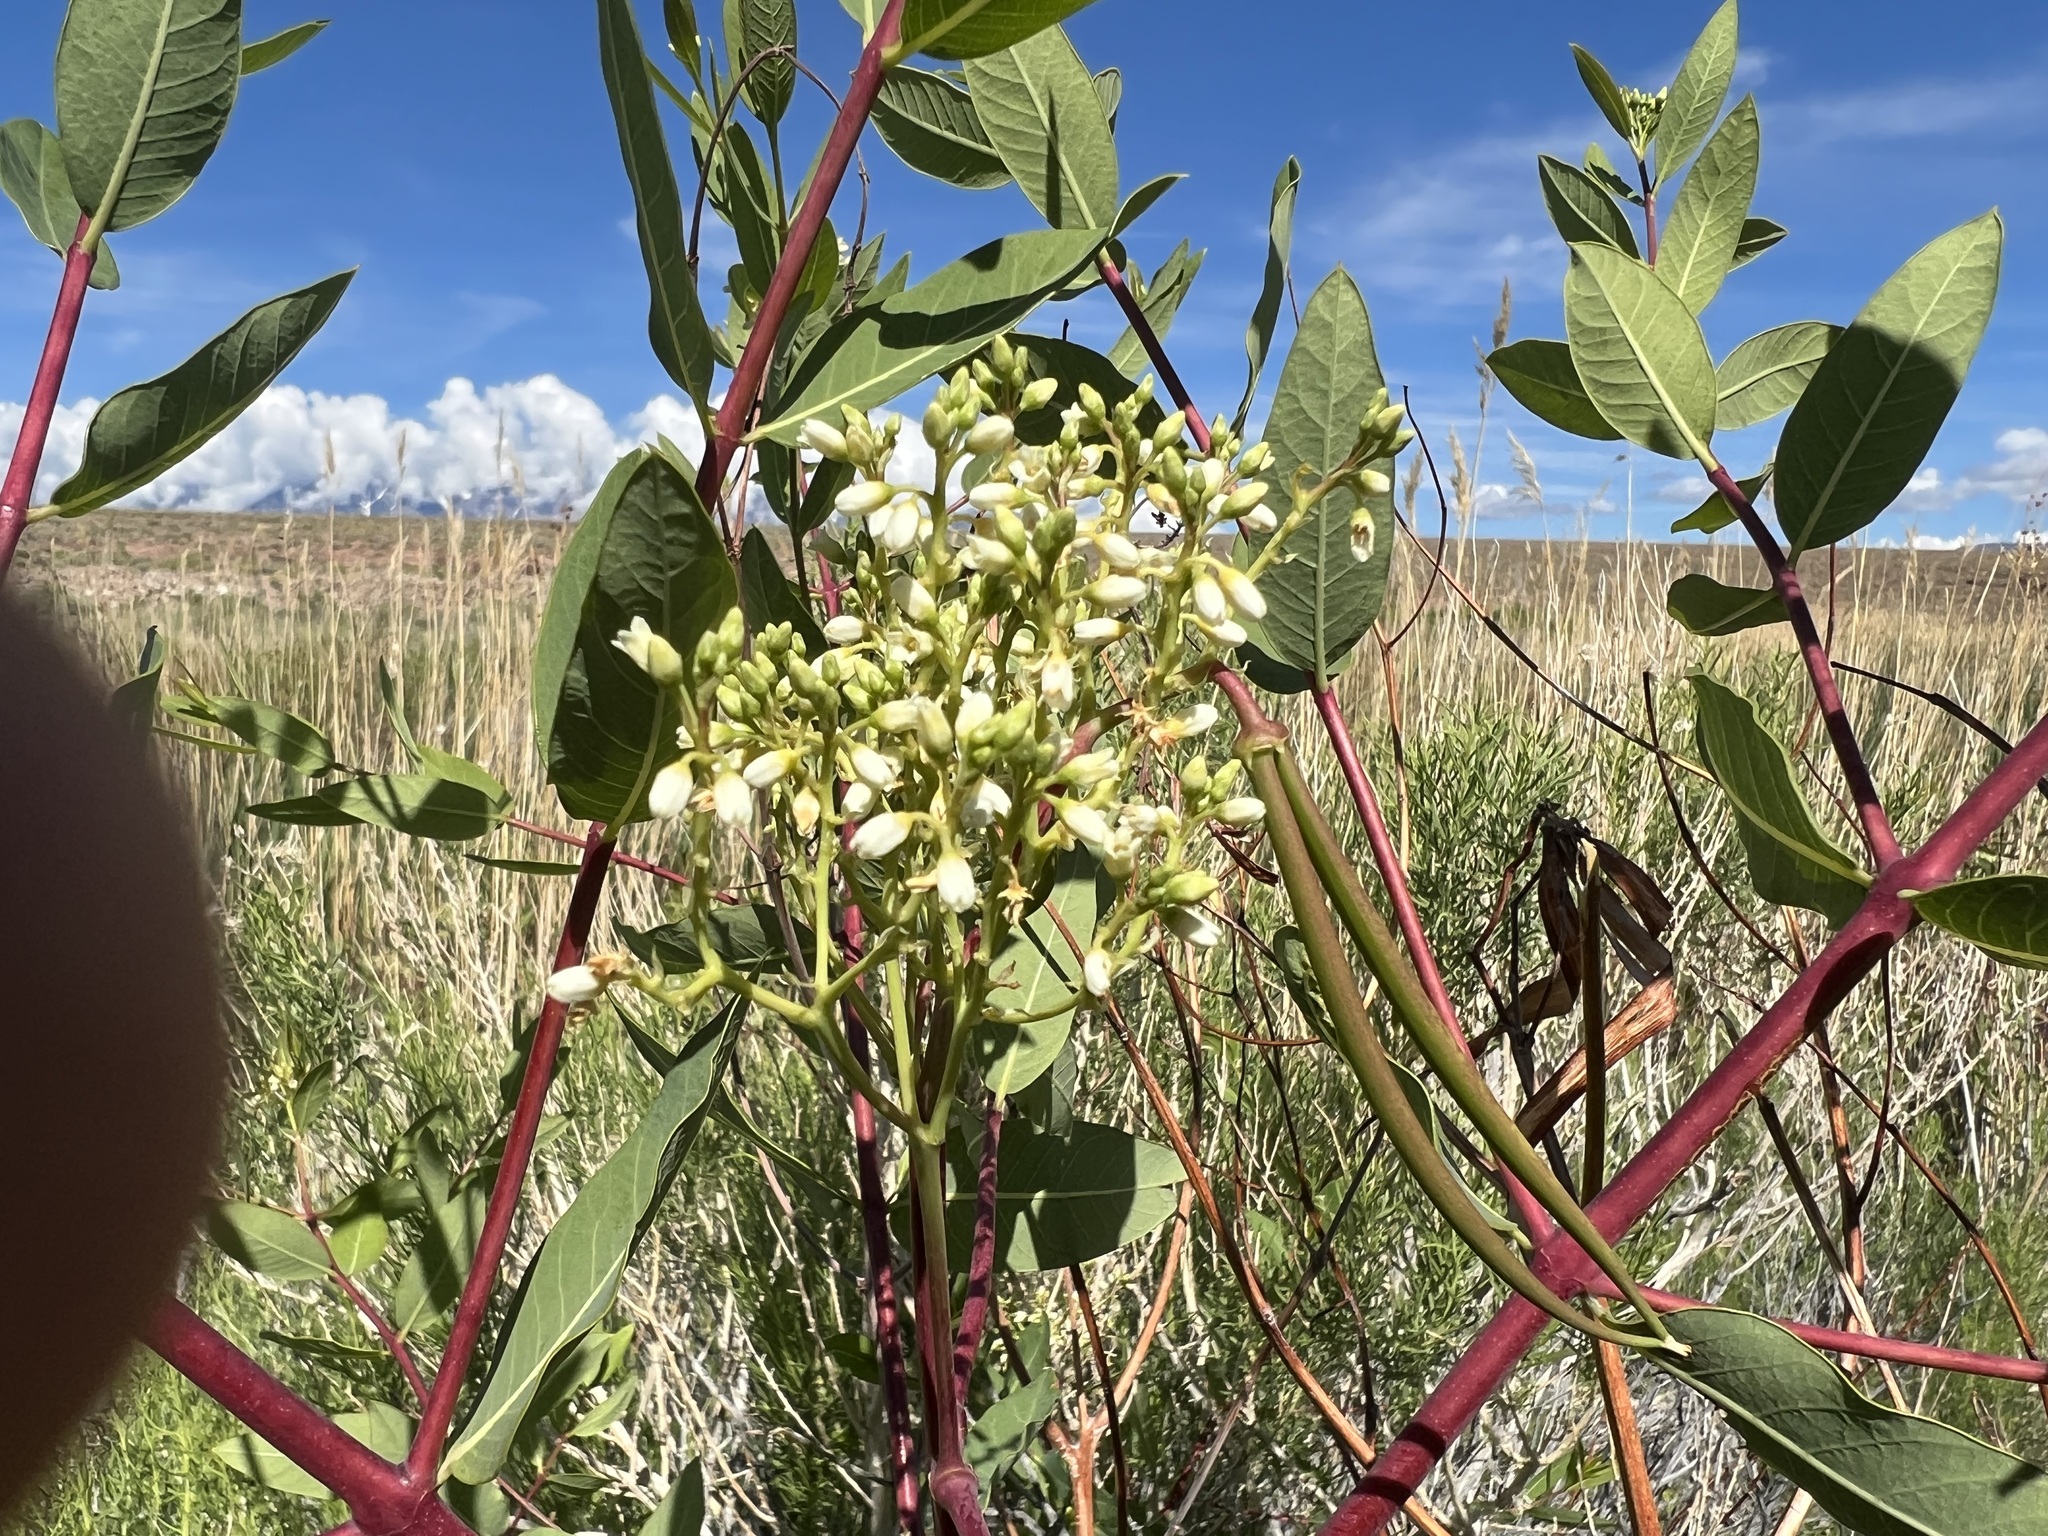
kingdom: Plantae
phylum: Tracheophyta
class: Magnoliopsida
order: Gentianales
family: Apocynaceae
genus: Apocynum
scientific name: Apocynum cannabinum
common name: Hemp dogbane
